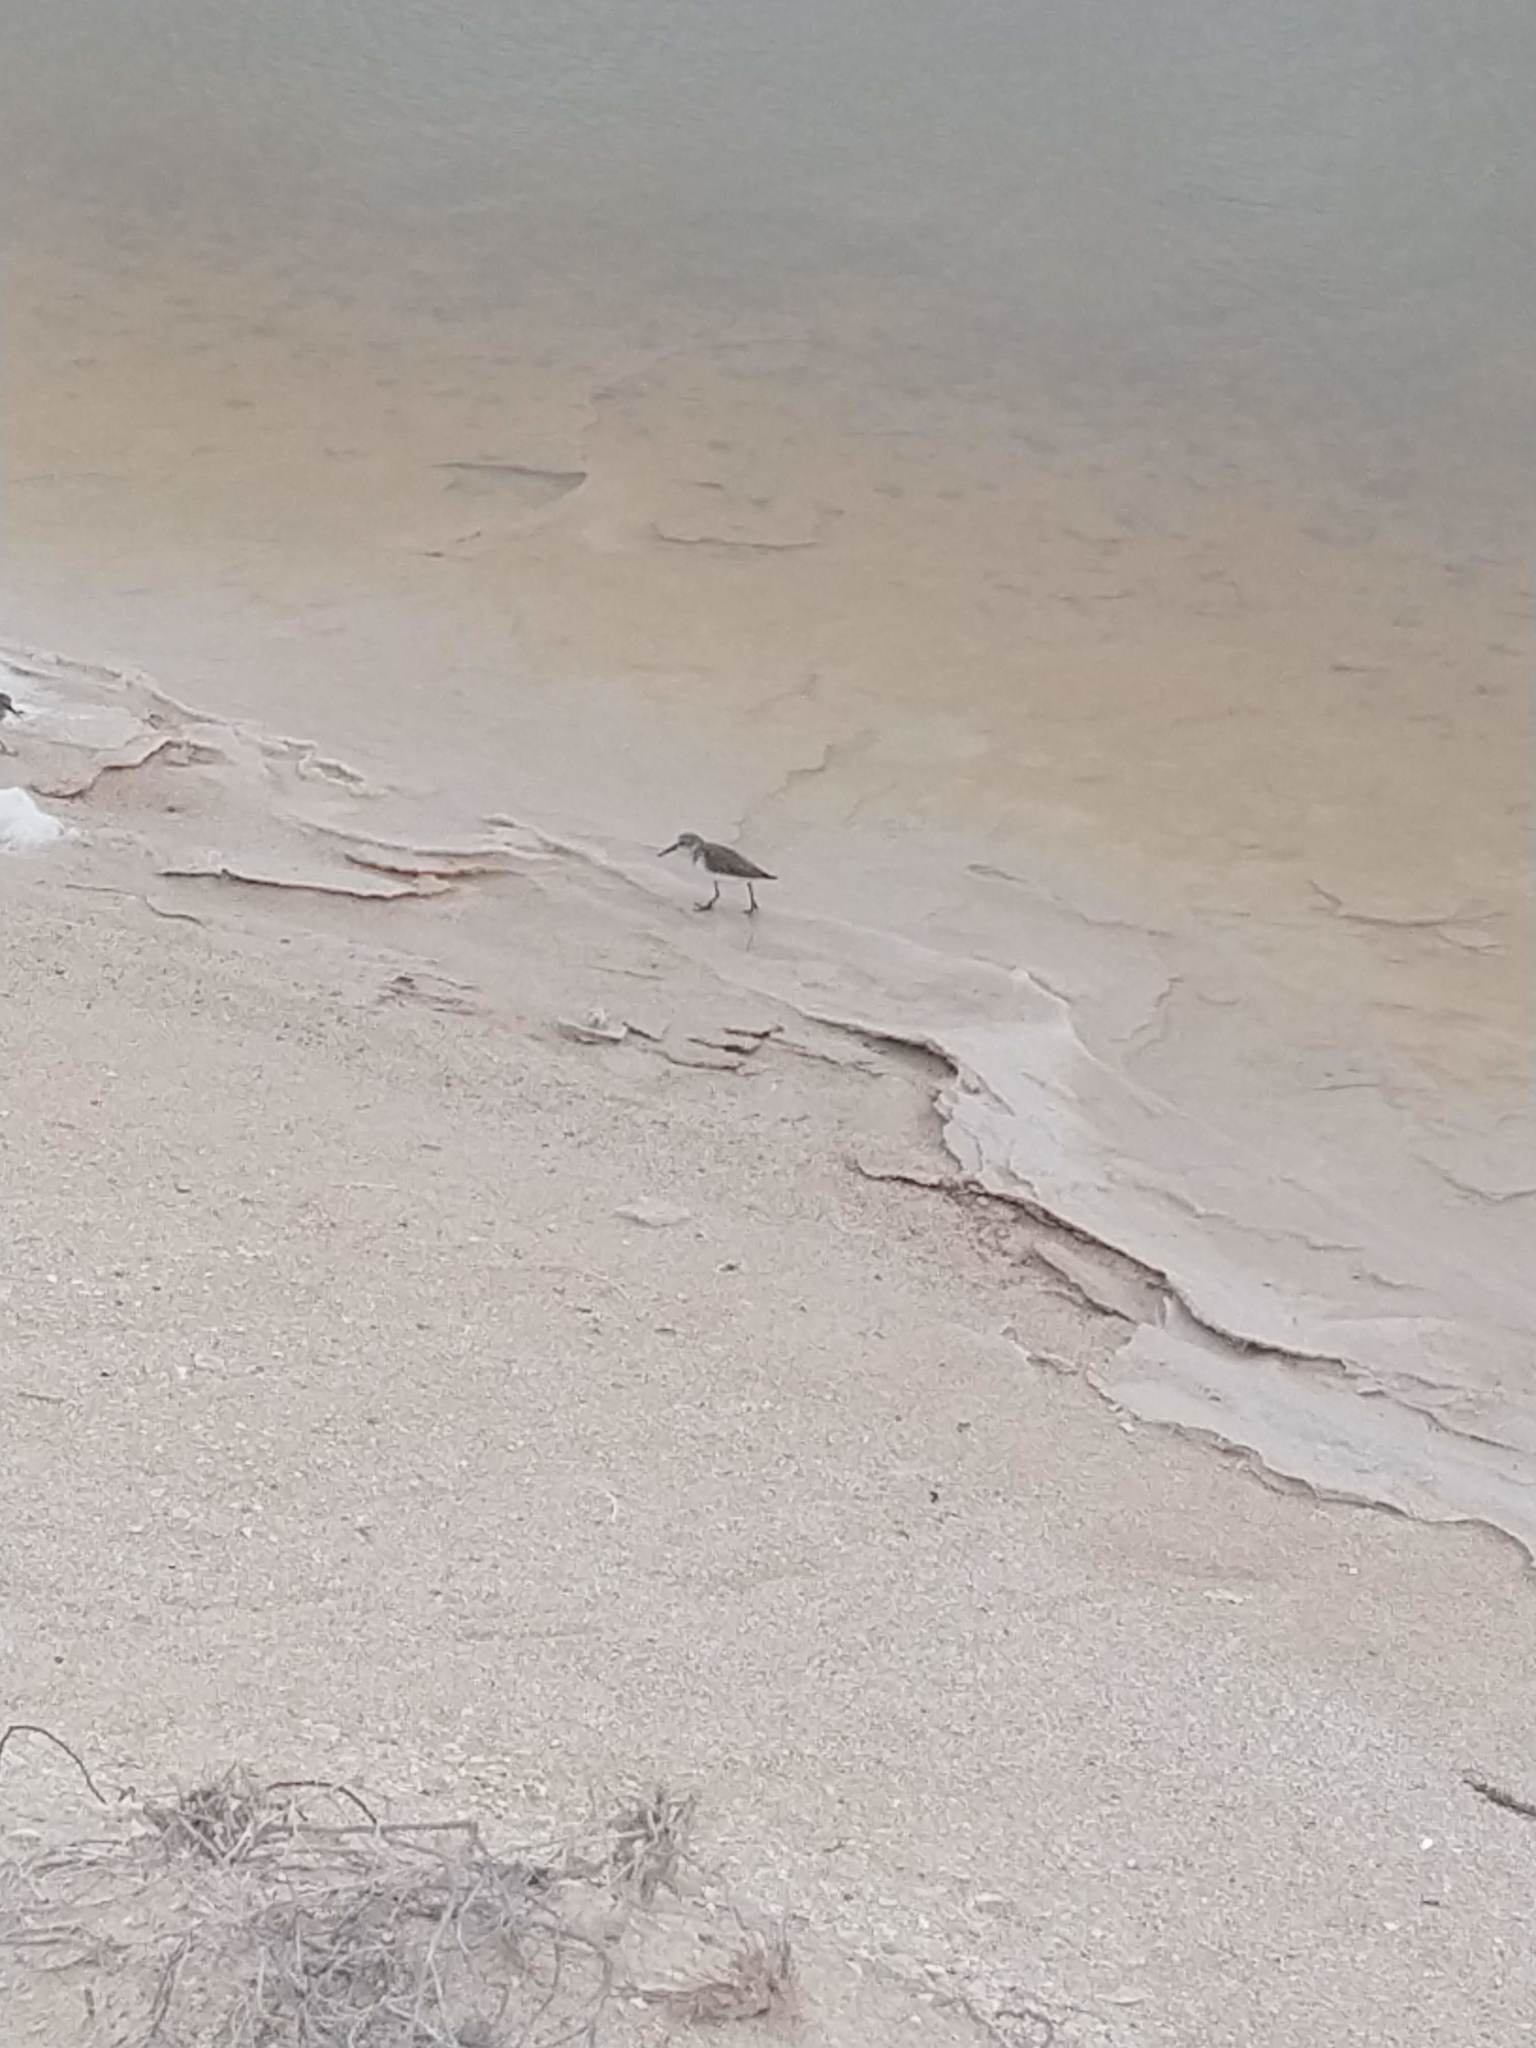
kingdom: Animalia
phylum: Chordata
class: Aves
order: Charadriiformes
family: Scolopacidae
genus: Calidris
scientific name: Calidris mauri
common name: Western sandpiper
